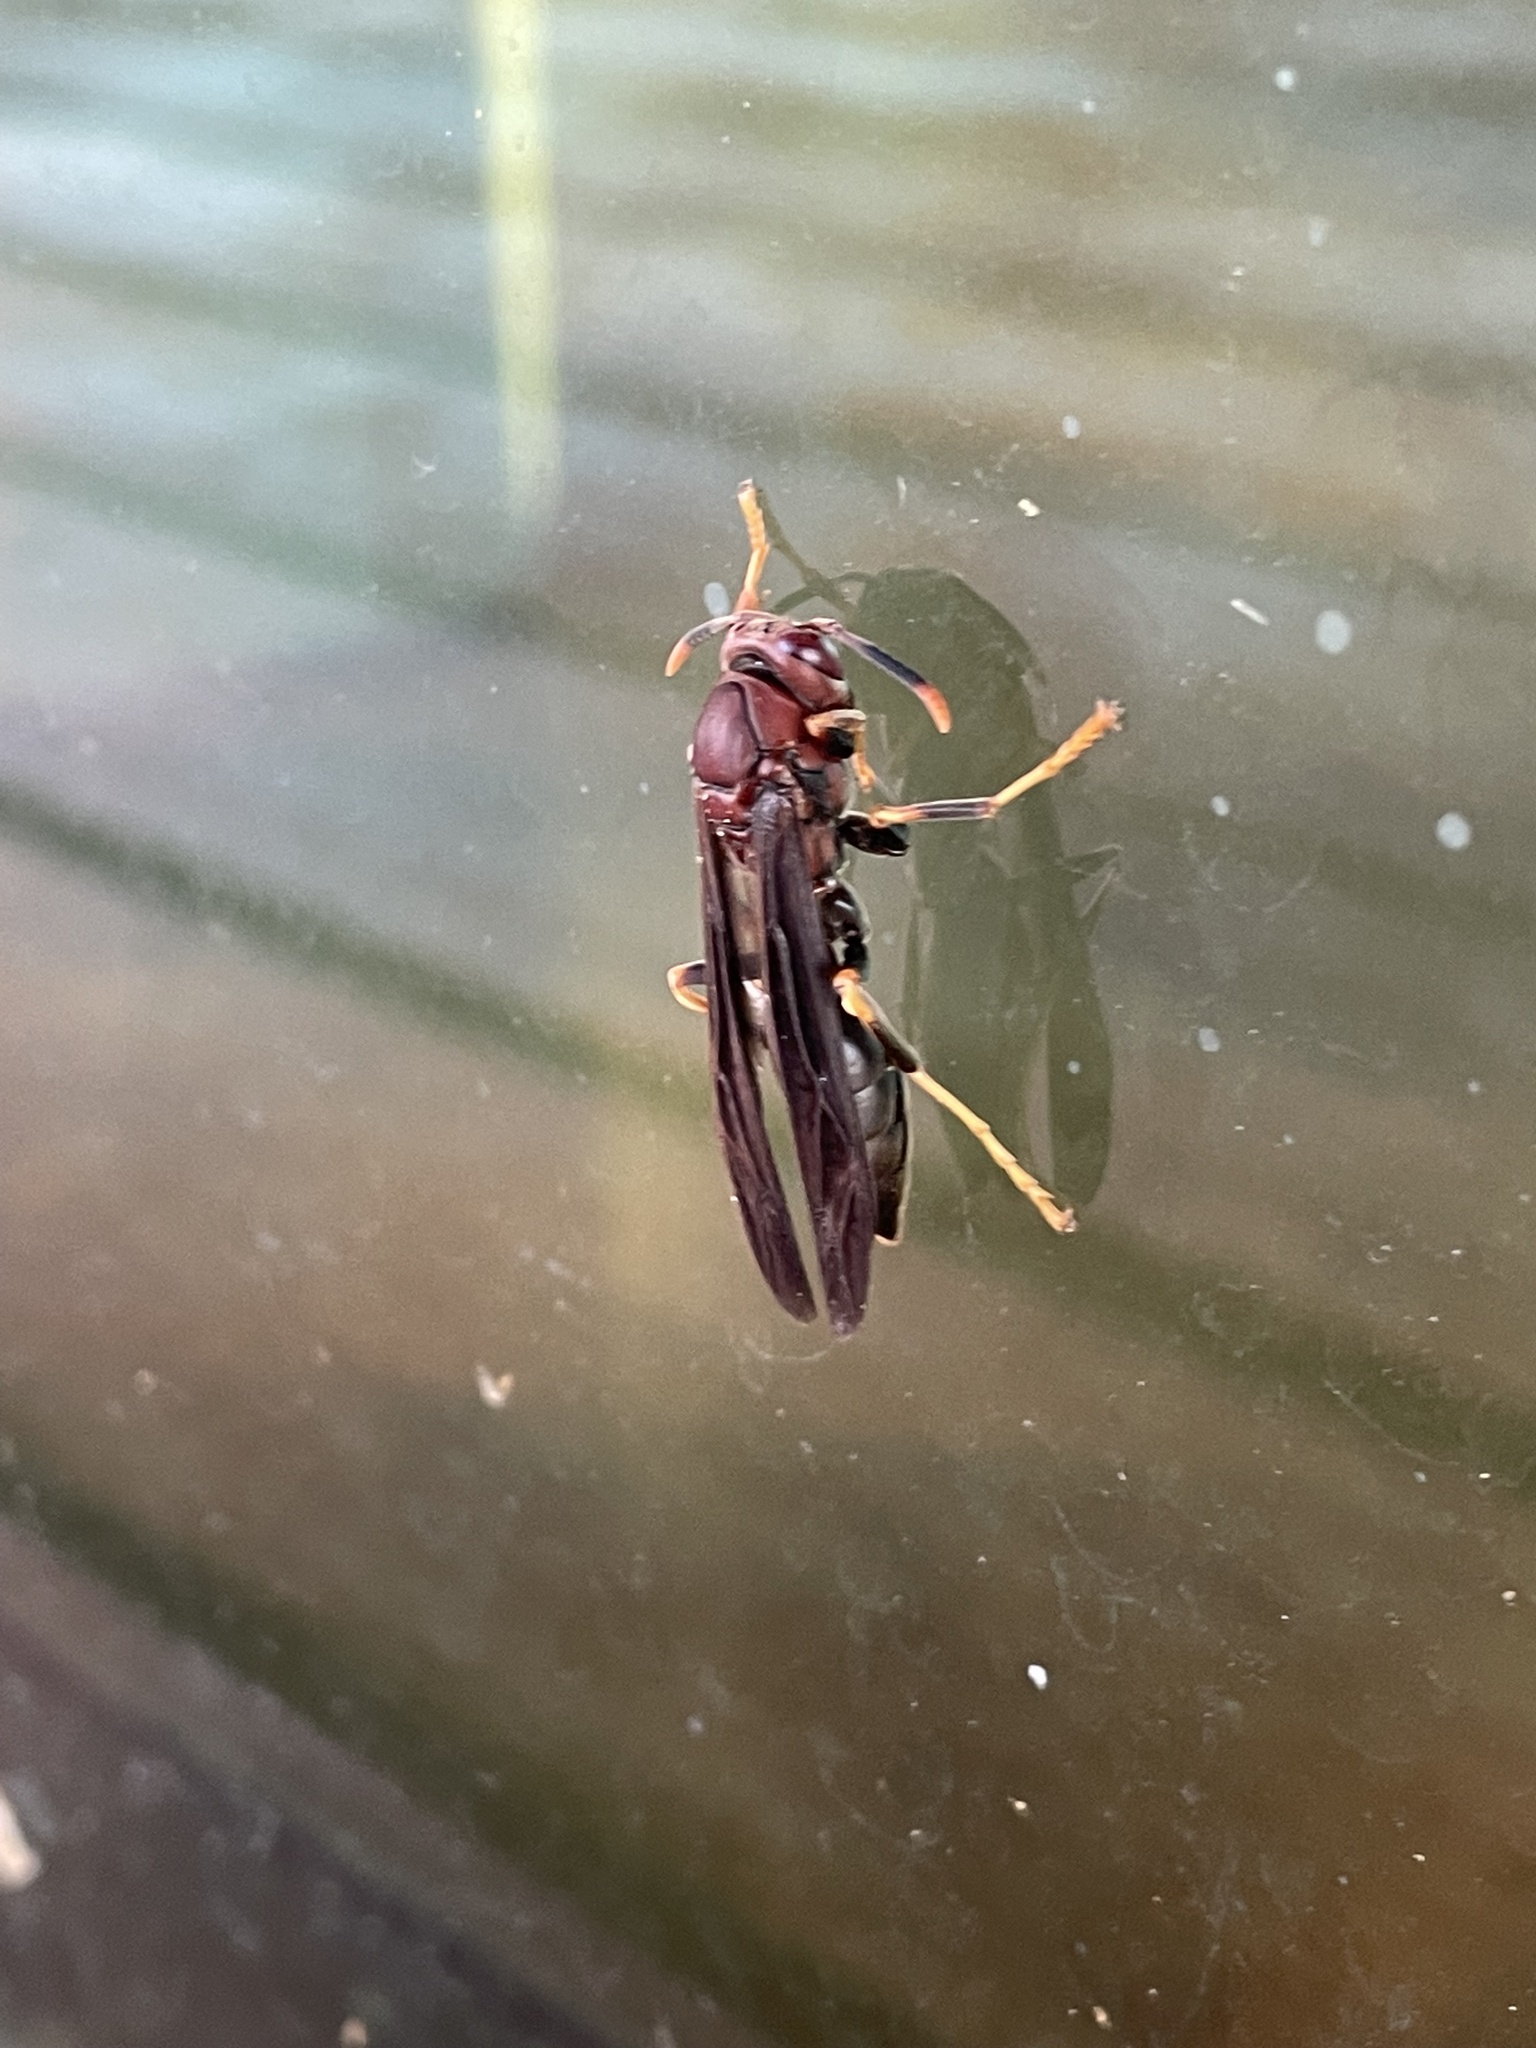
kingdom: Animalia
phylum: Arthropoda
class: Insecta
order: Hymenoptera
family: Eumenidae
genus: Polistes
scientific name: Polistes annularis
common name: Ringed paper wasp
